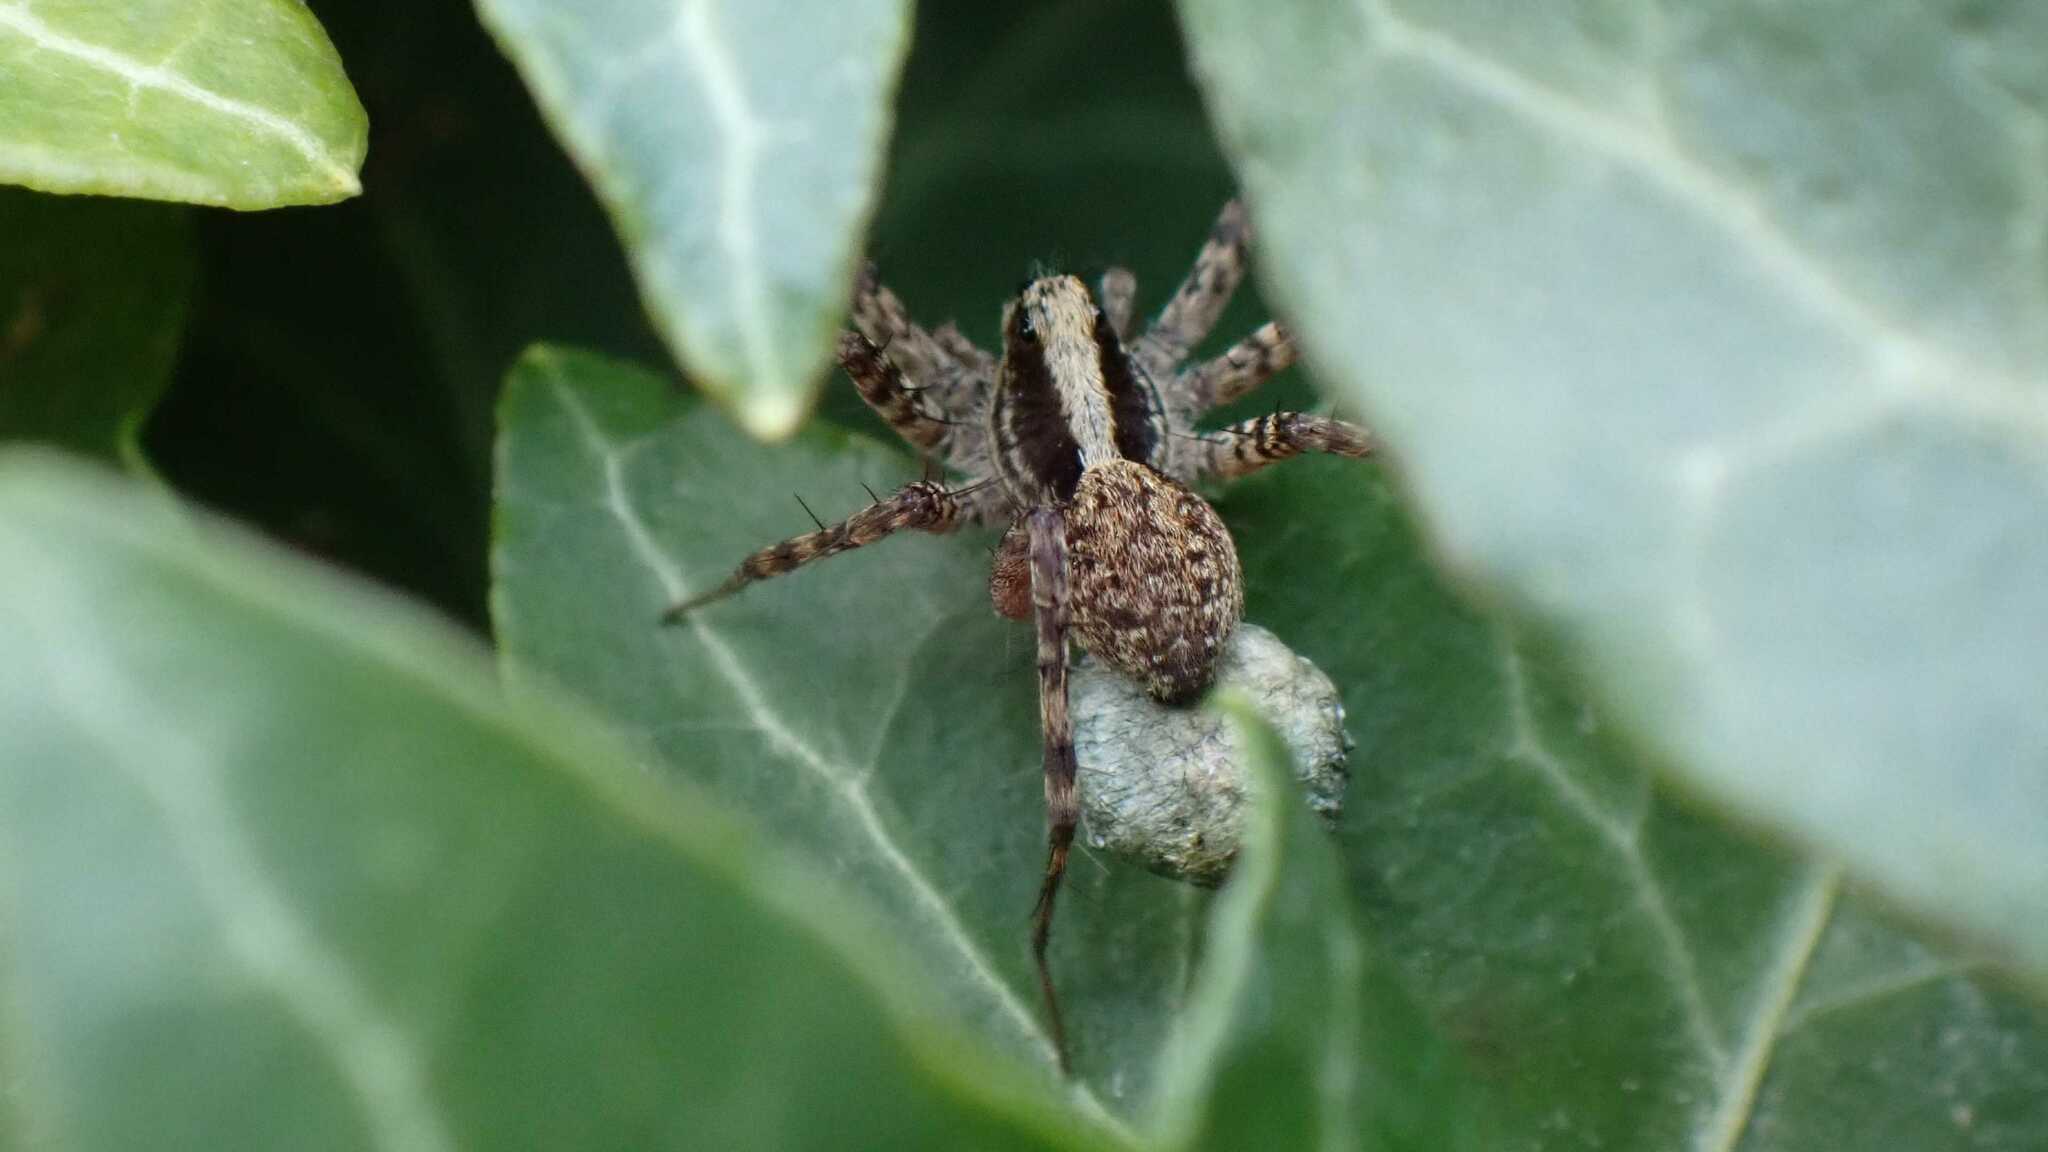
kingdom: Animalia
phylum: Arthropoda
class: Arachnida
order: Araneae
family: Lycosidae
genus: Pardosa
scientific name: Pardosa
